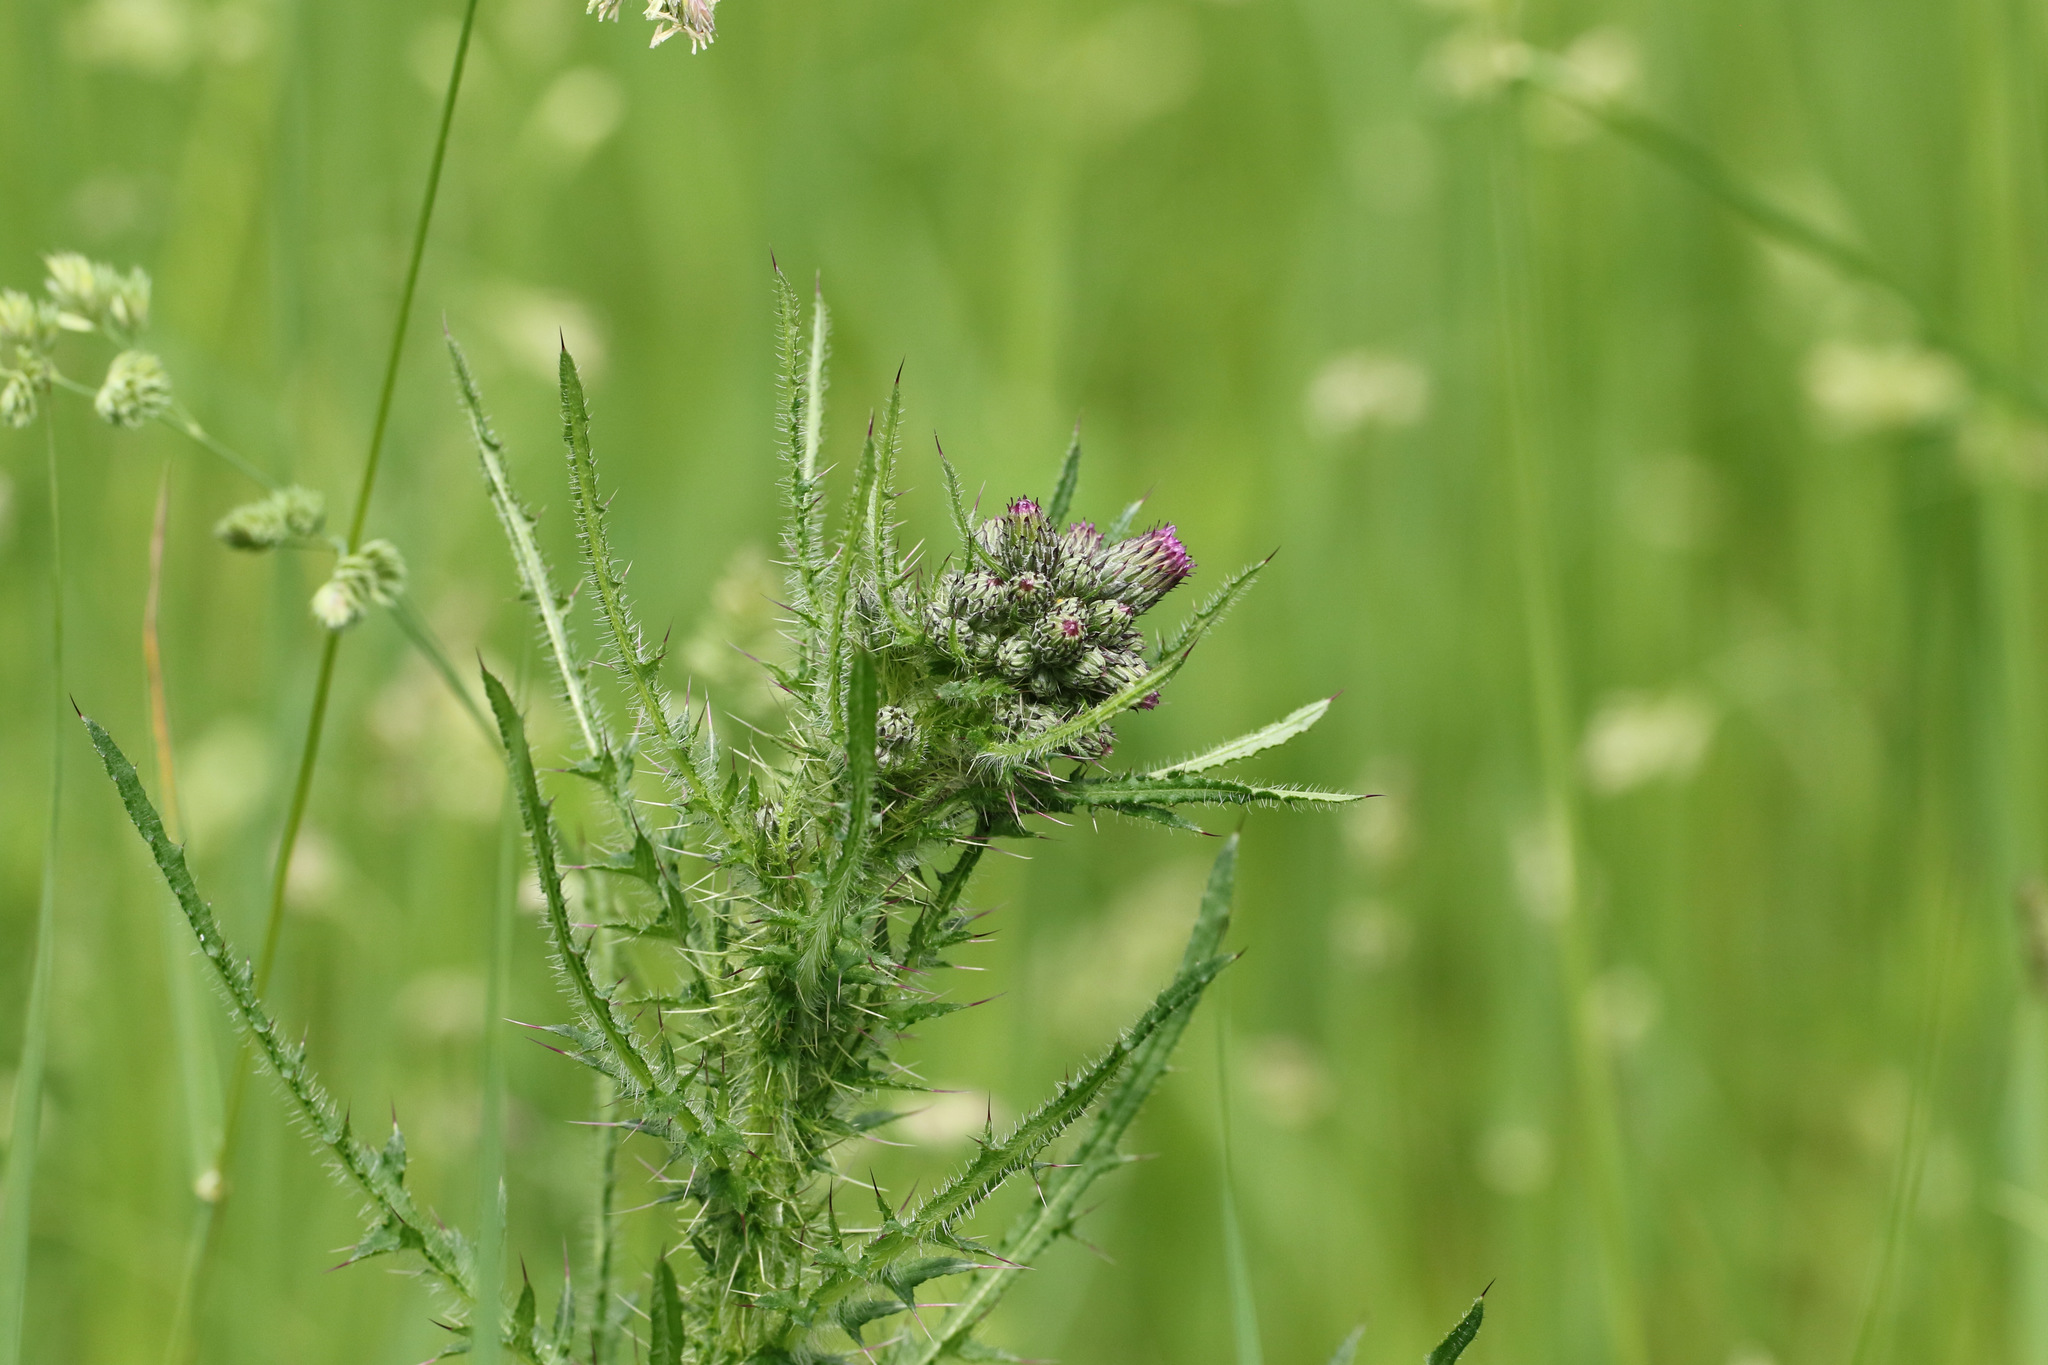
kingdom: Plantae
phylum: Tracheophyta
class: Magnoliopsida
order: Asterales
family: Asteraceae
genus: Cirsium
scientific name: Cirsium palustre
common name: Marsh thistle
